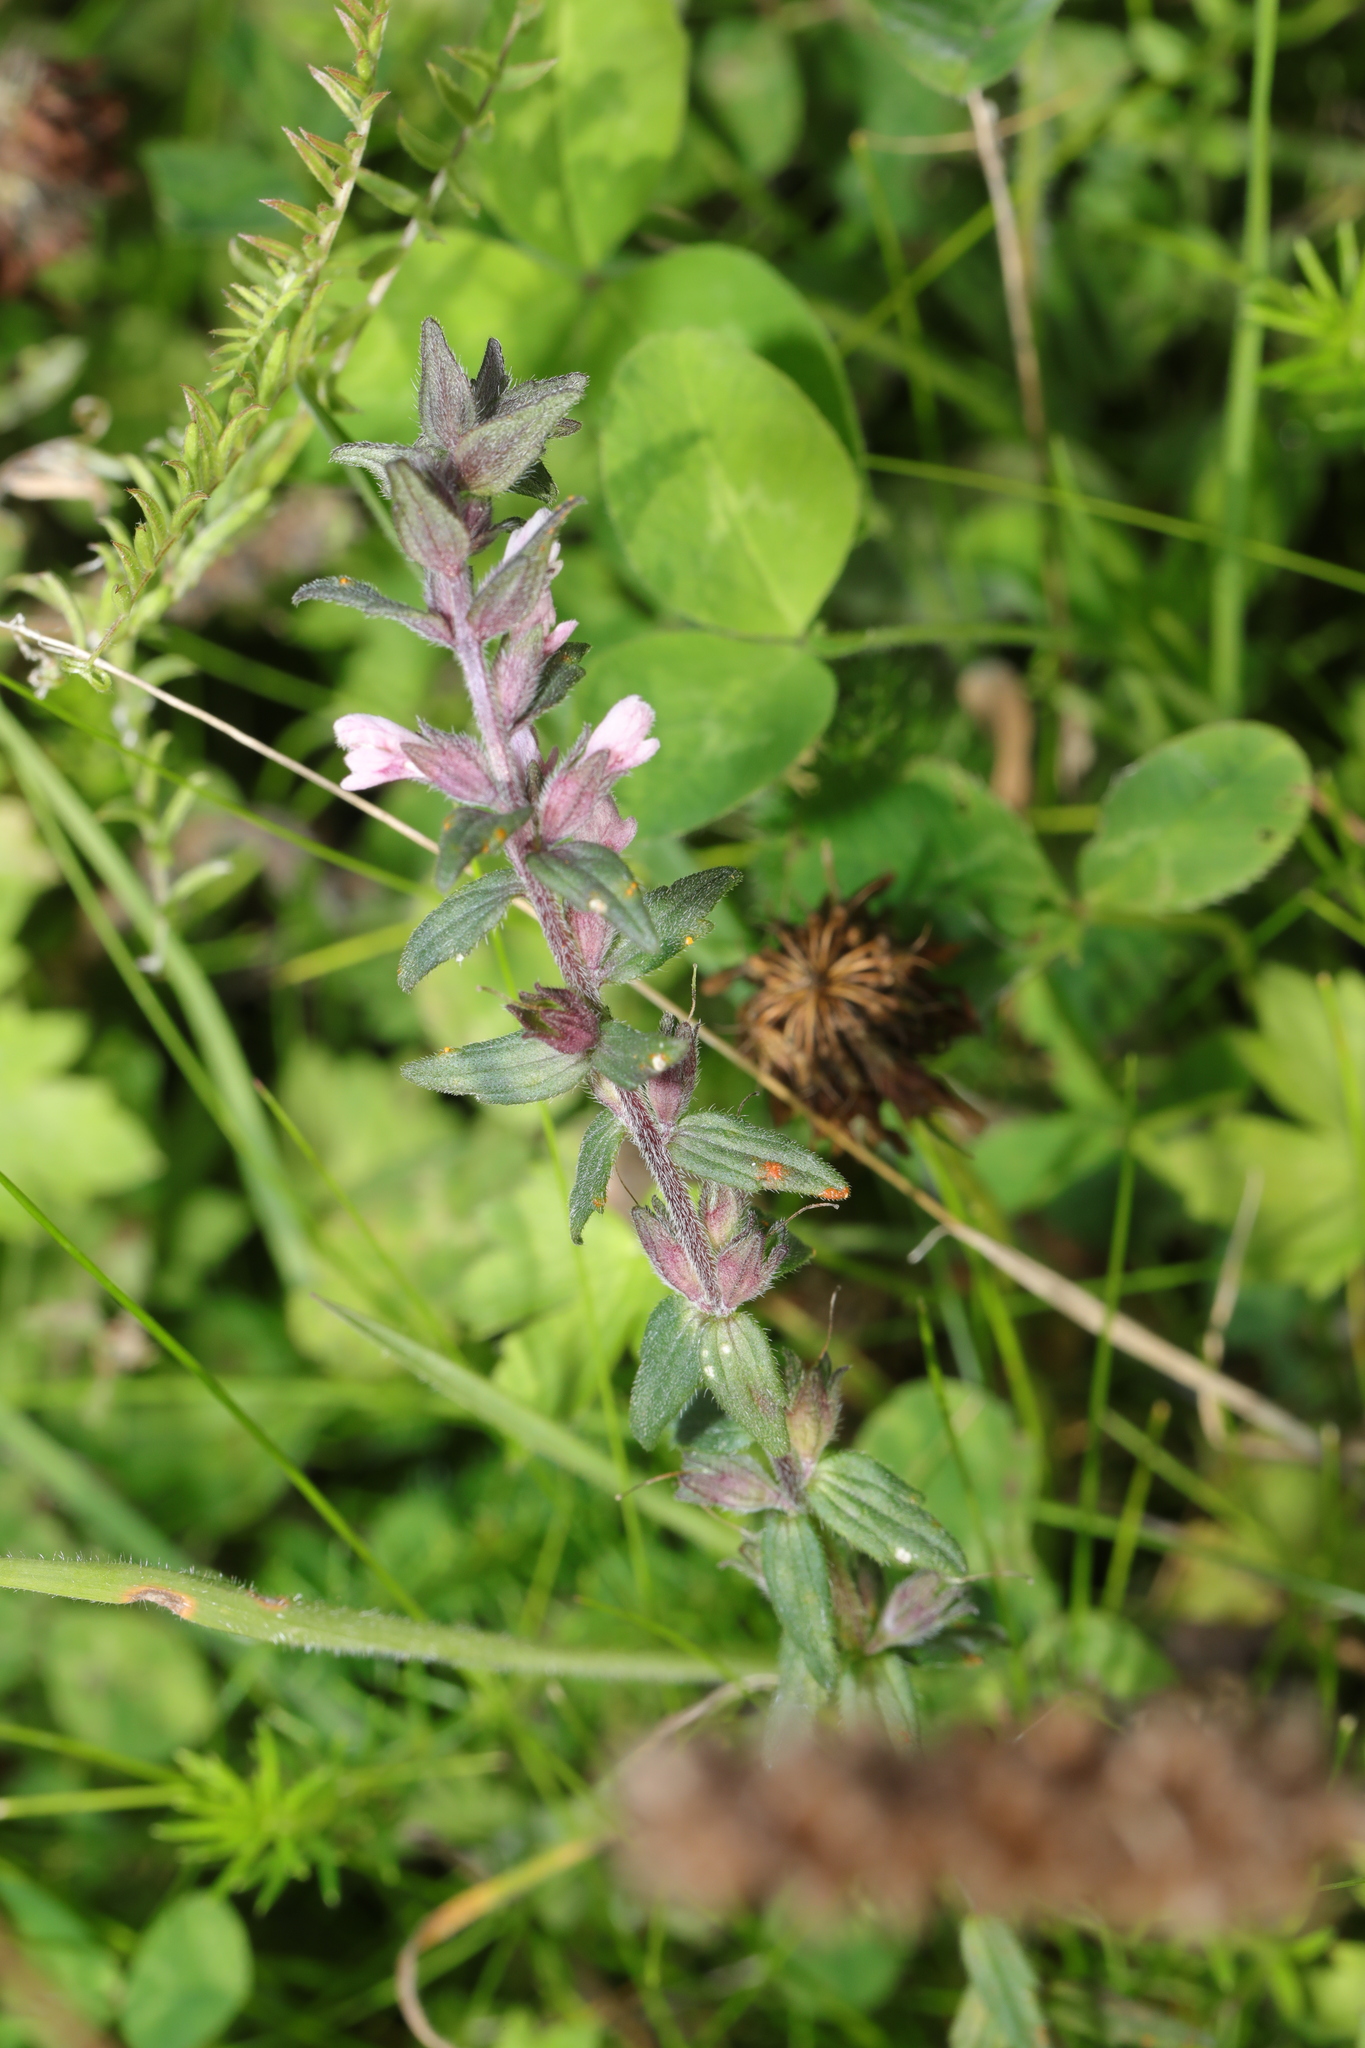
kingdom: Plantae
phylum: Tracheophyta
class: Magnoliopsida
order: Lamiales
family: Orobanchaceae
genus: Odontites
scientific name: Odontites vernus
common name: Red bartsia
